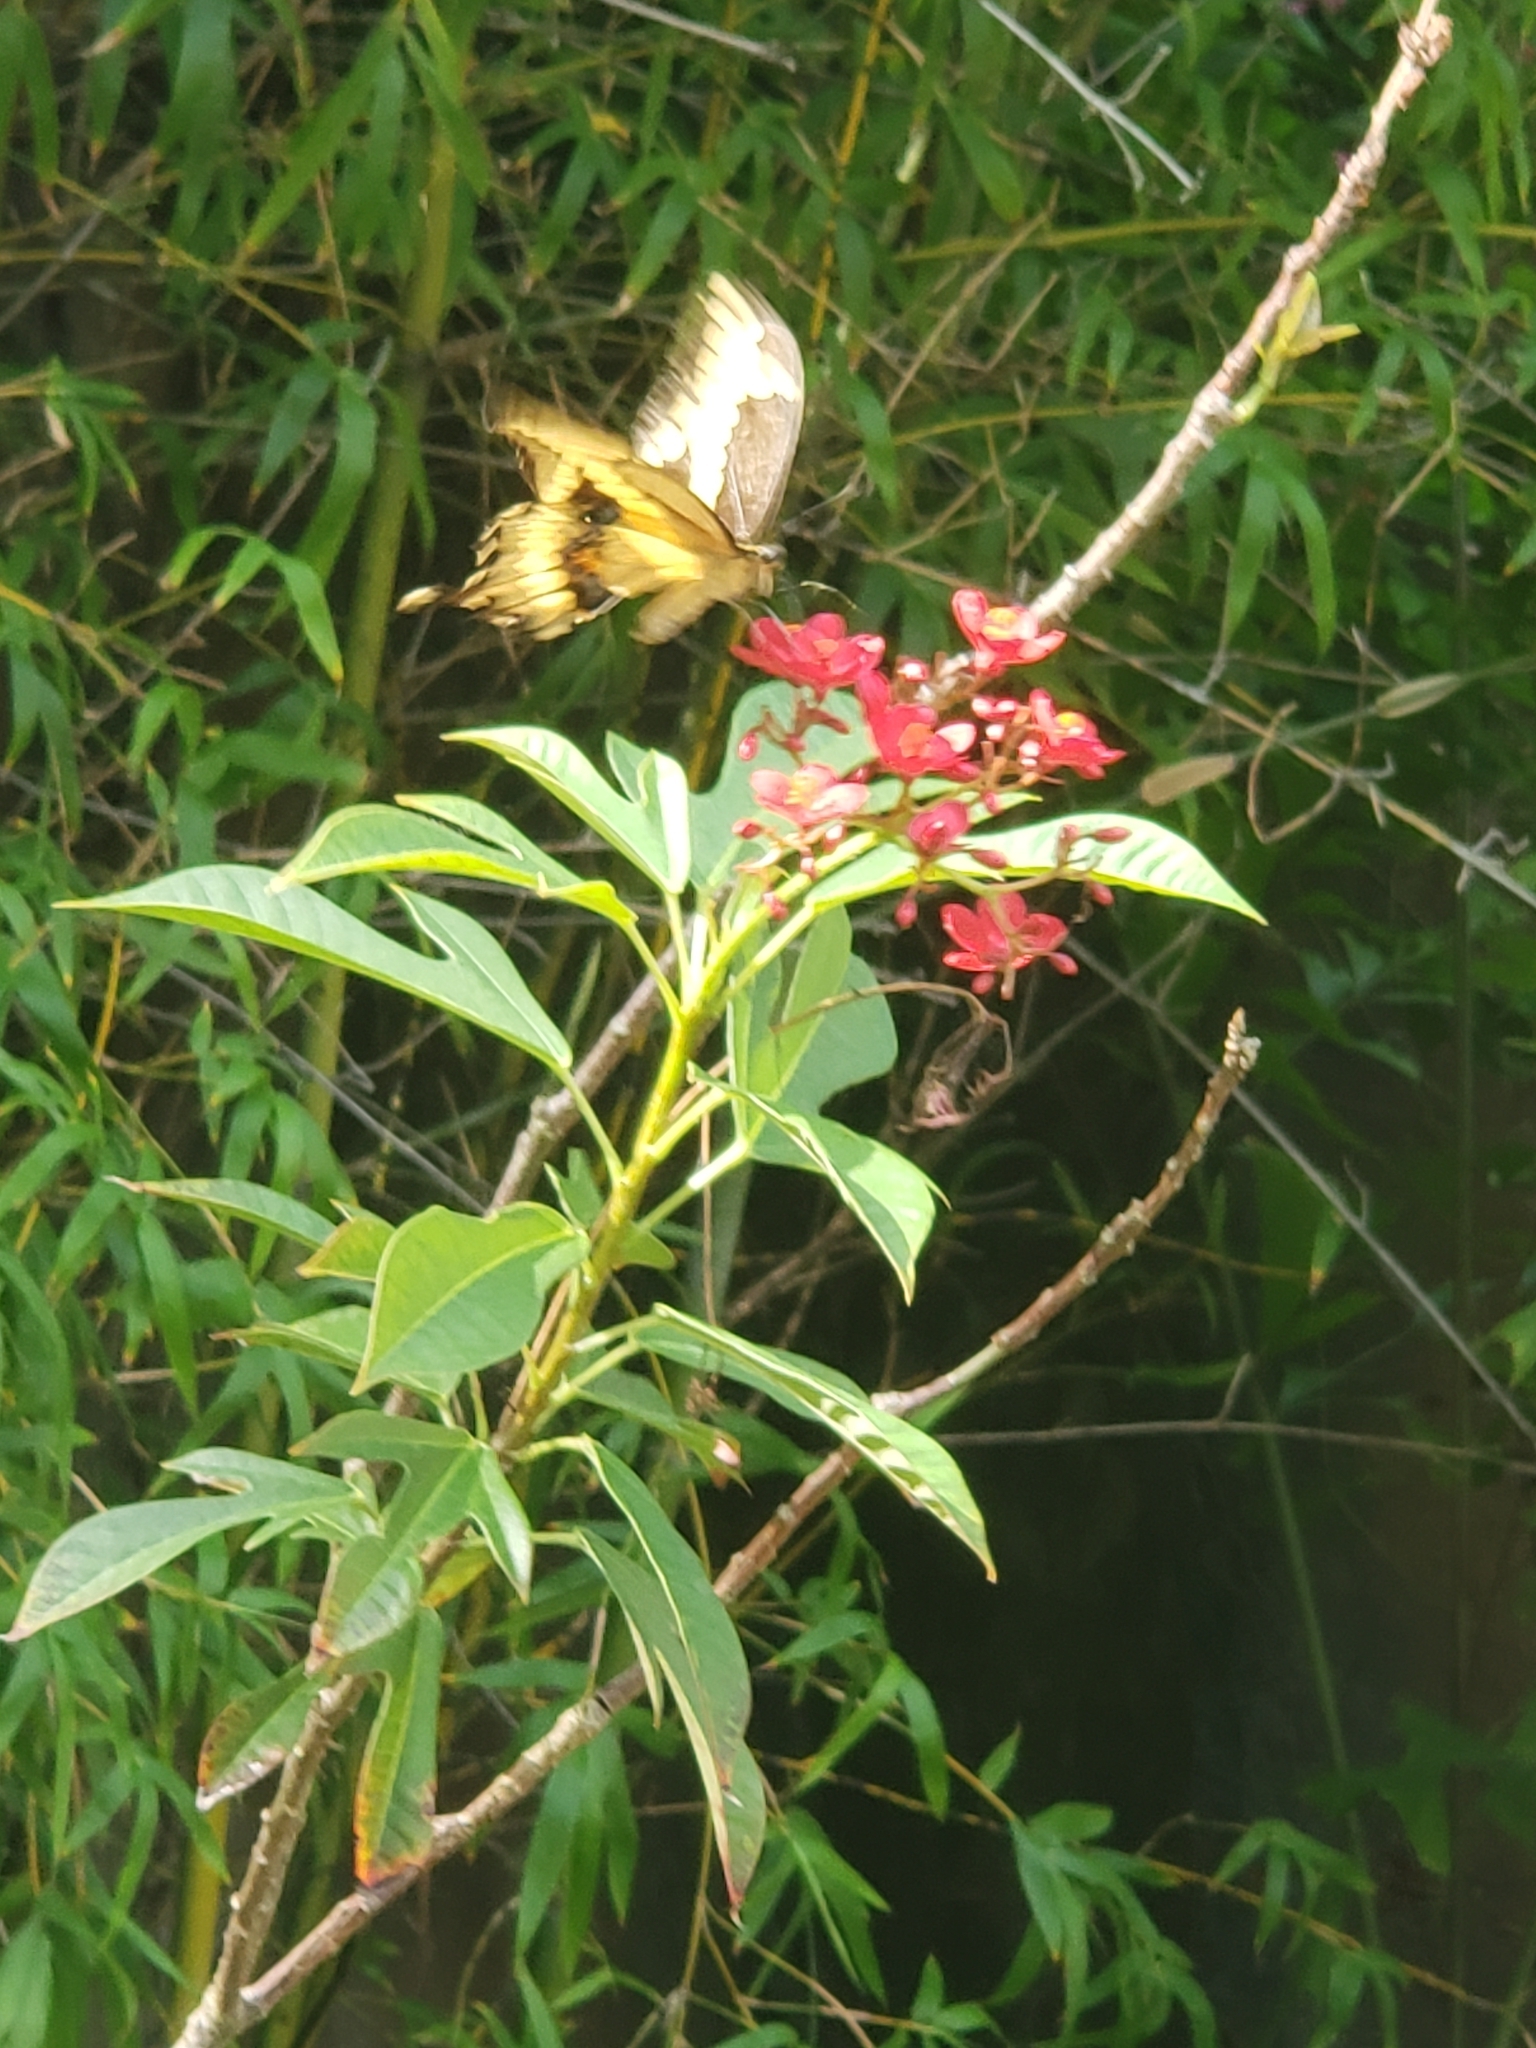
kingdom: Animalia
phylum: Arthropoda
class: Insecta
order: Lepidoptera
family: Papilionidae
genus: Papilio
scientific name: Papilio cresphontes
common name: Giant swallowtail
